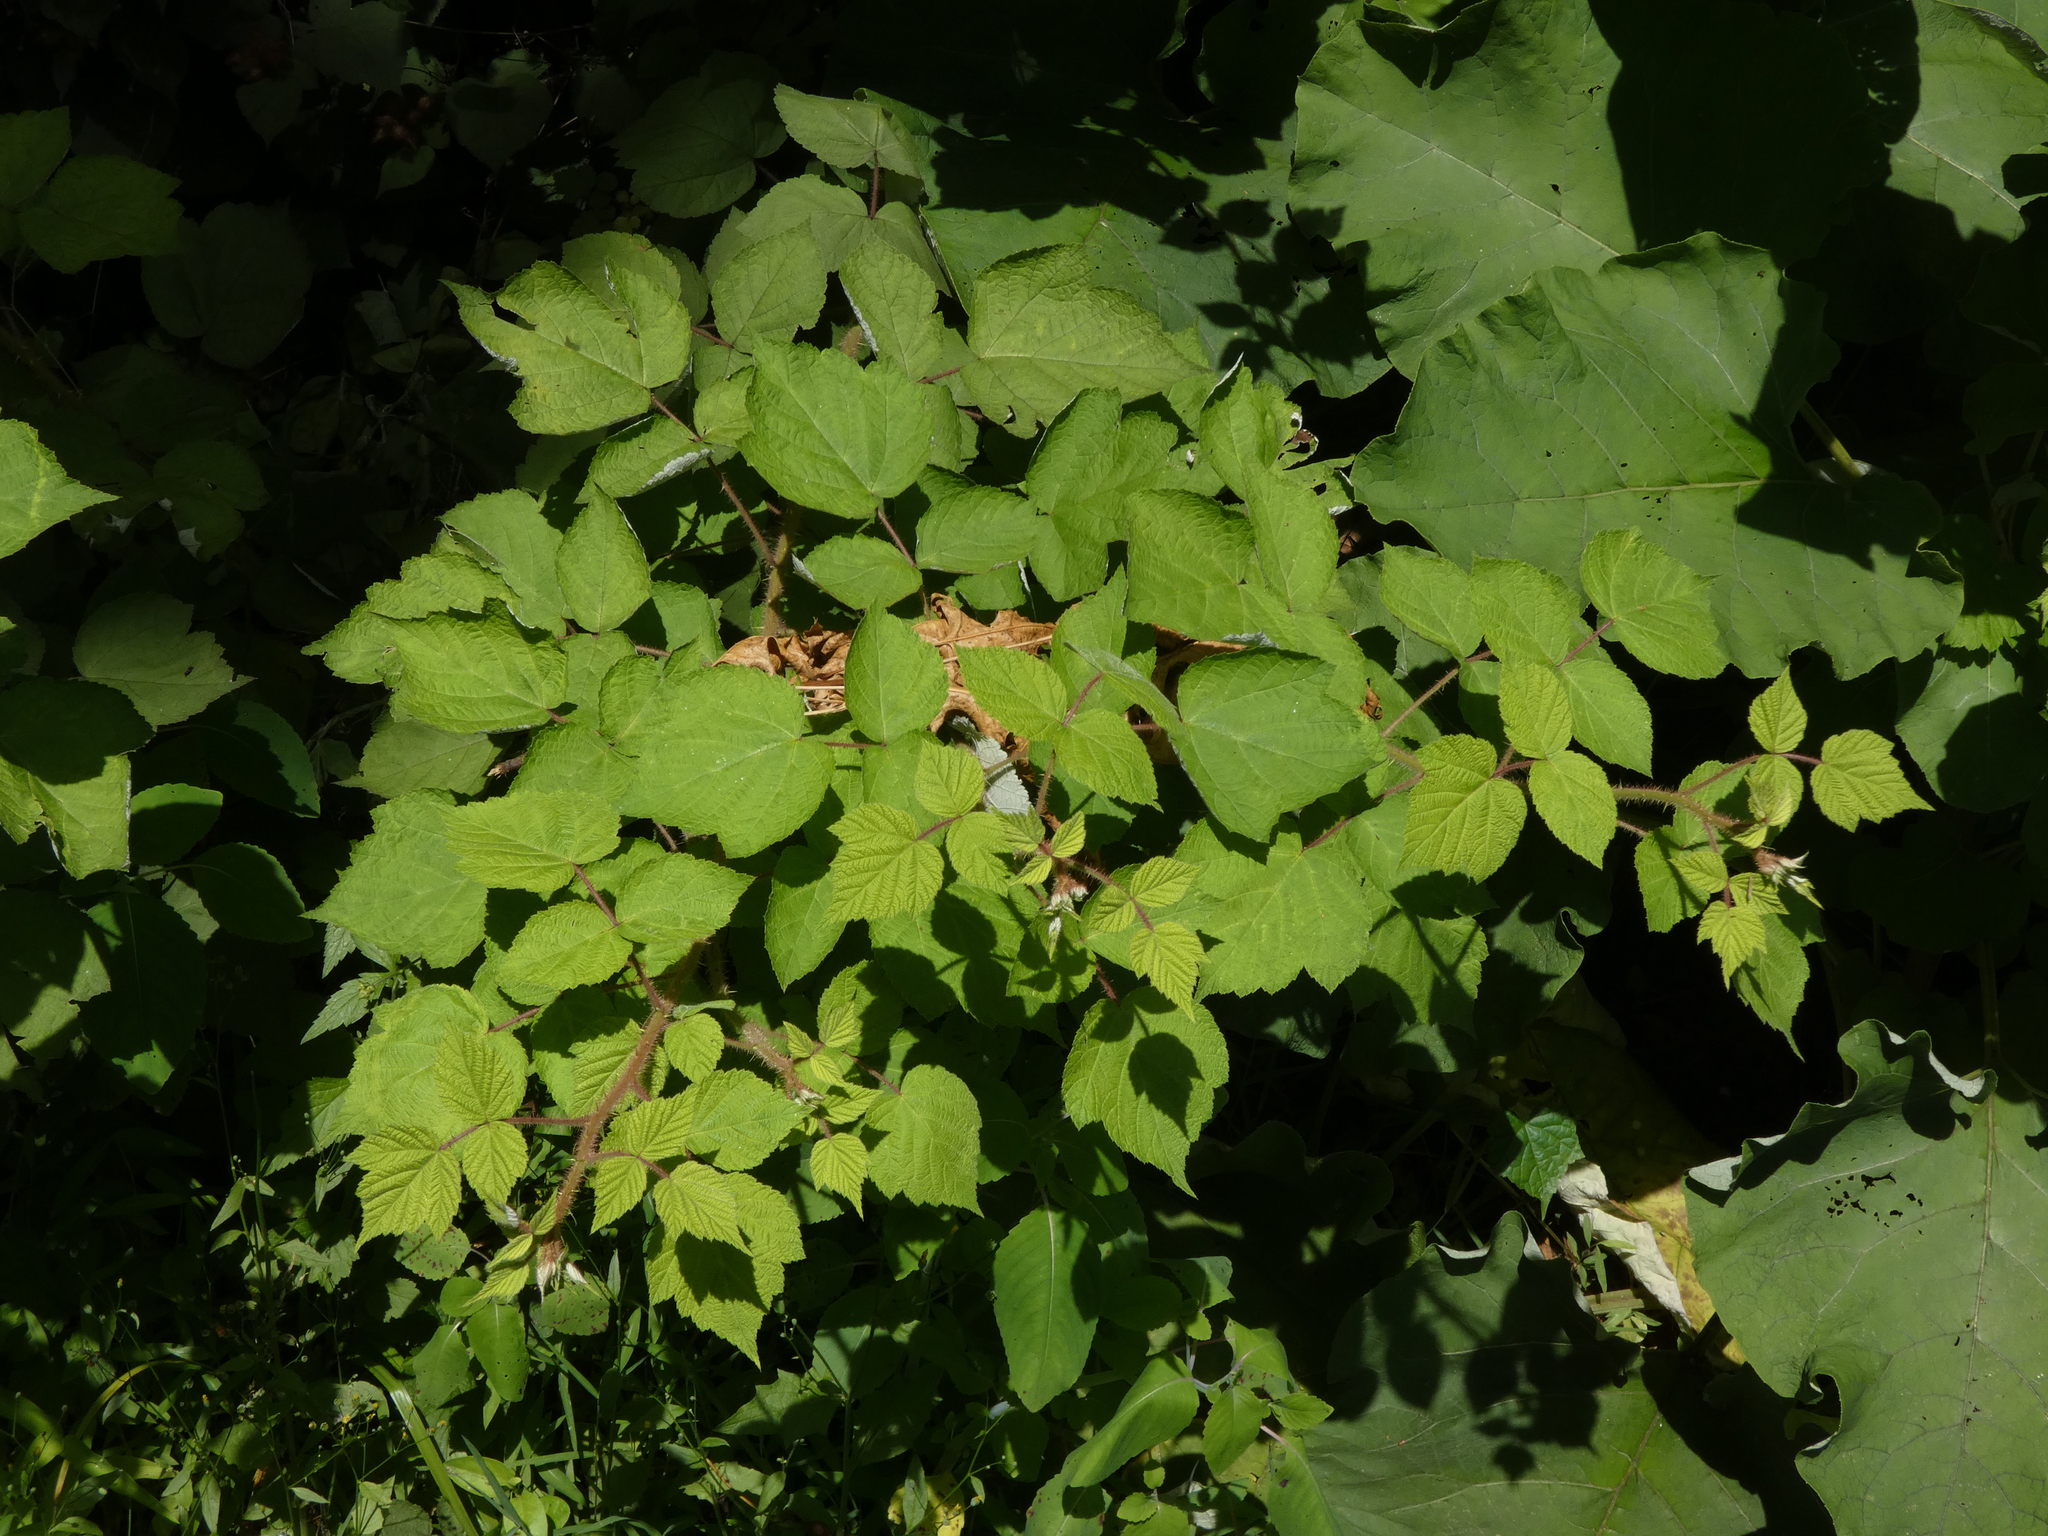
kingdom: Plantae
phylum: Tracheophyta
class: Magnoliopsida
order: Rosales
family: Rosaceae
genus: Rubus
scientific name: Rubus phoenicolasius
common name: Japanese wineberry
